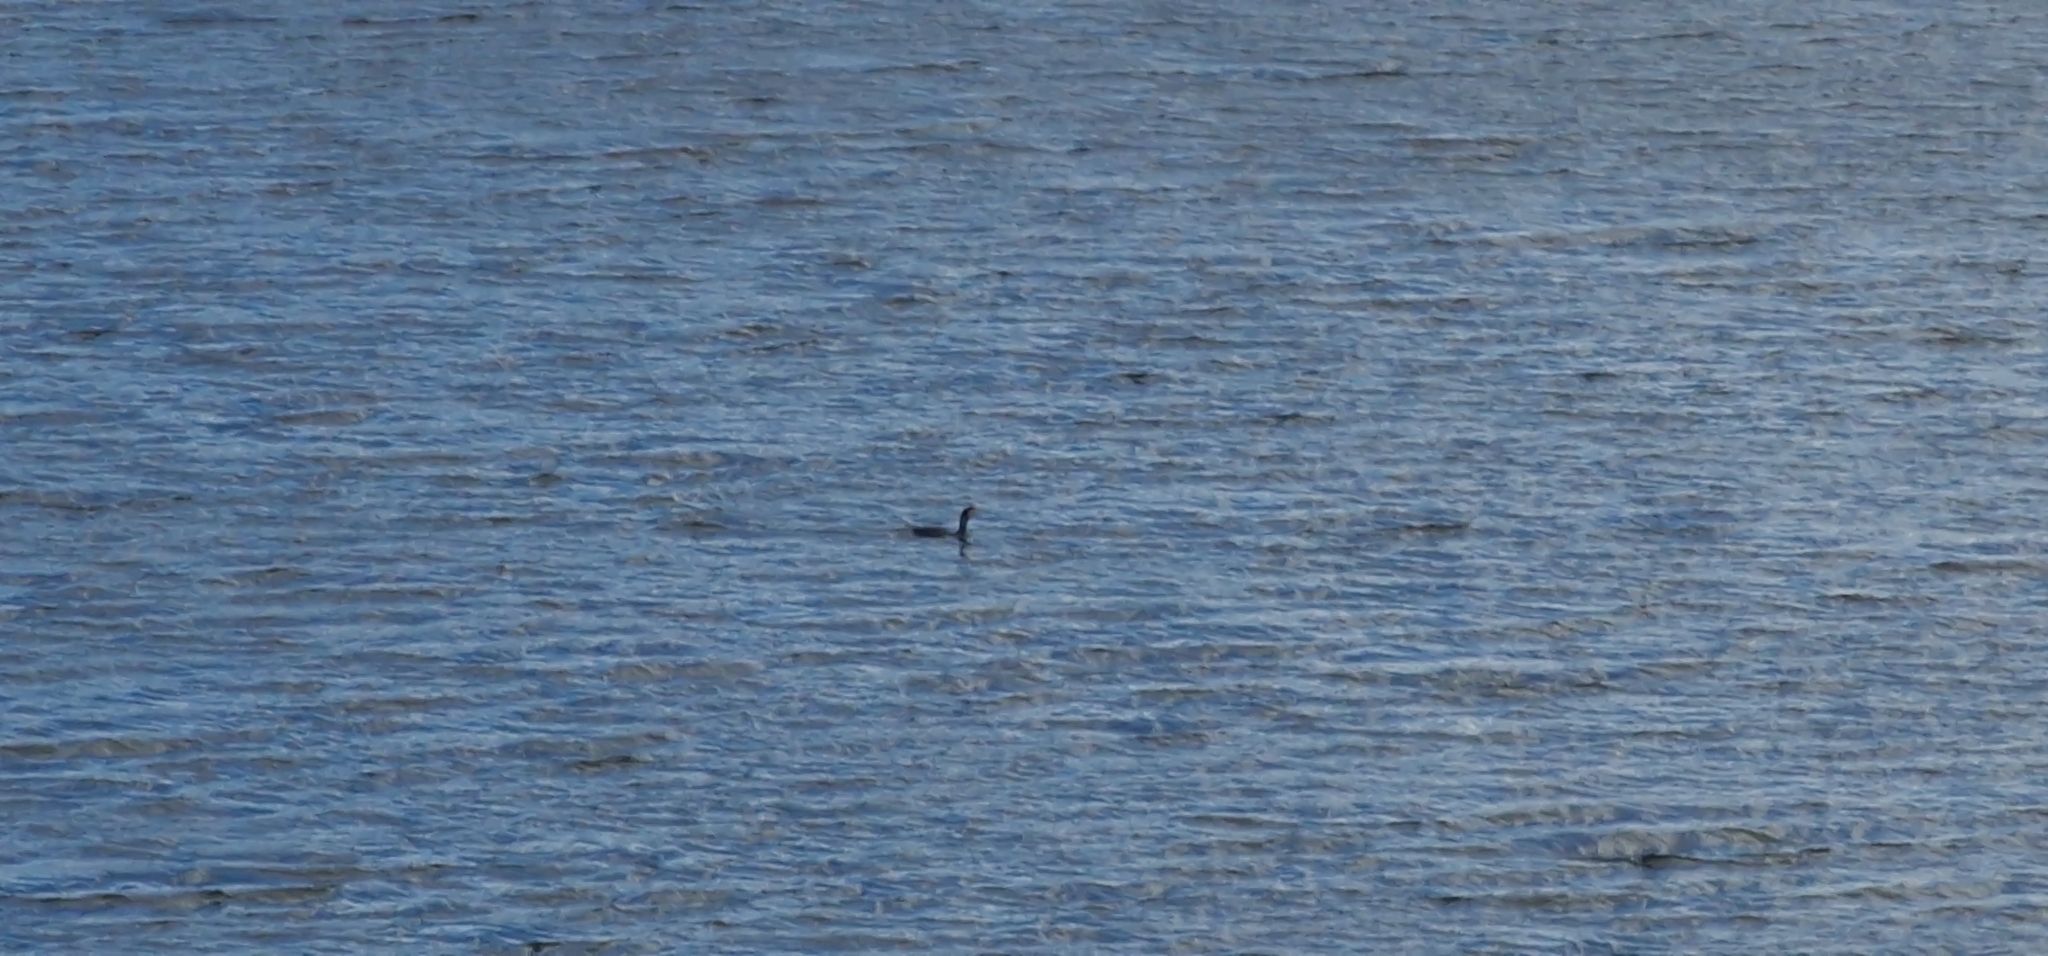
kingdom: Animalia
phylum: Chordata
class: Aves
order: Suliformes
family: Phalacrocoracidae
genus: Phalacrocorax
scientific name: Phalacrocorax carbo
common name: Great cormorant
